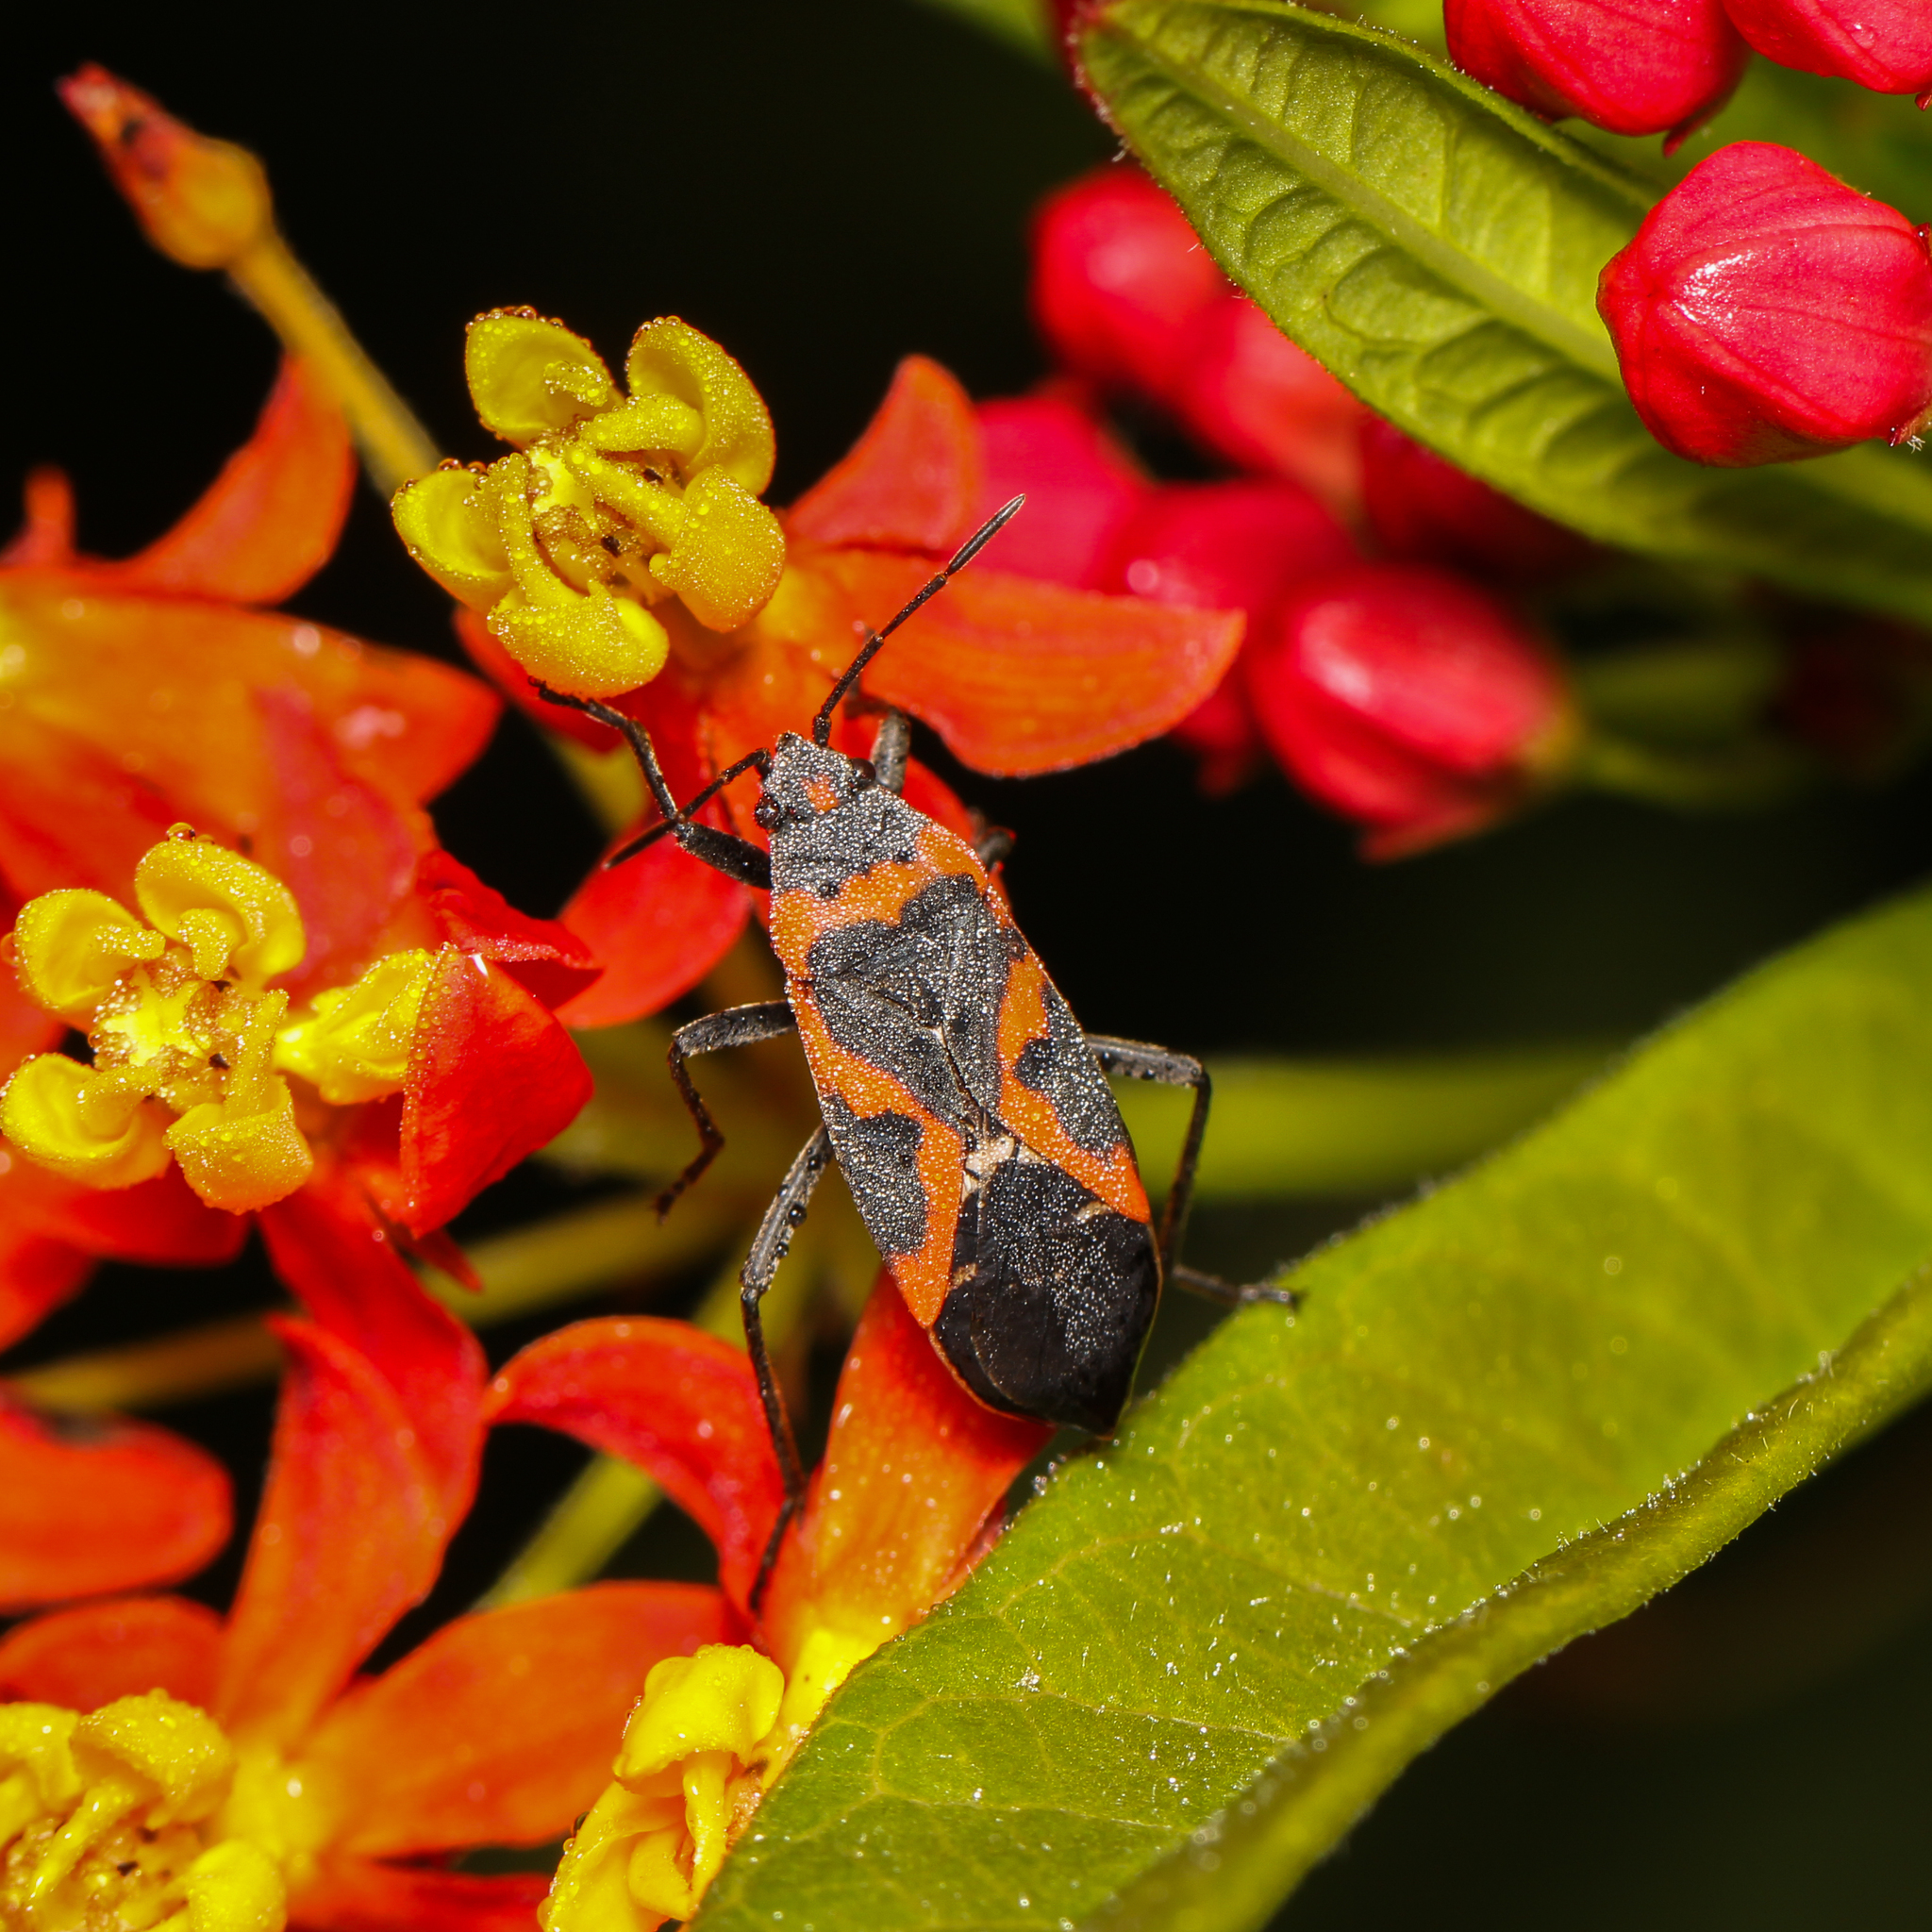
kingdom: Animalia
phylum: Arthropoda
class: Insecta
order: Hemiptera
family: Lygaeidae
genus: Lygaeus
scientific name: Lygaeus kalmii
